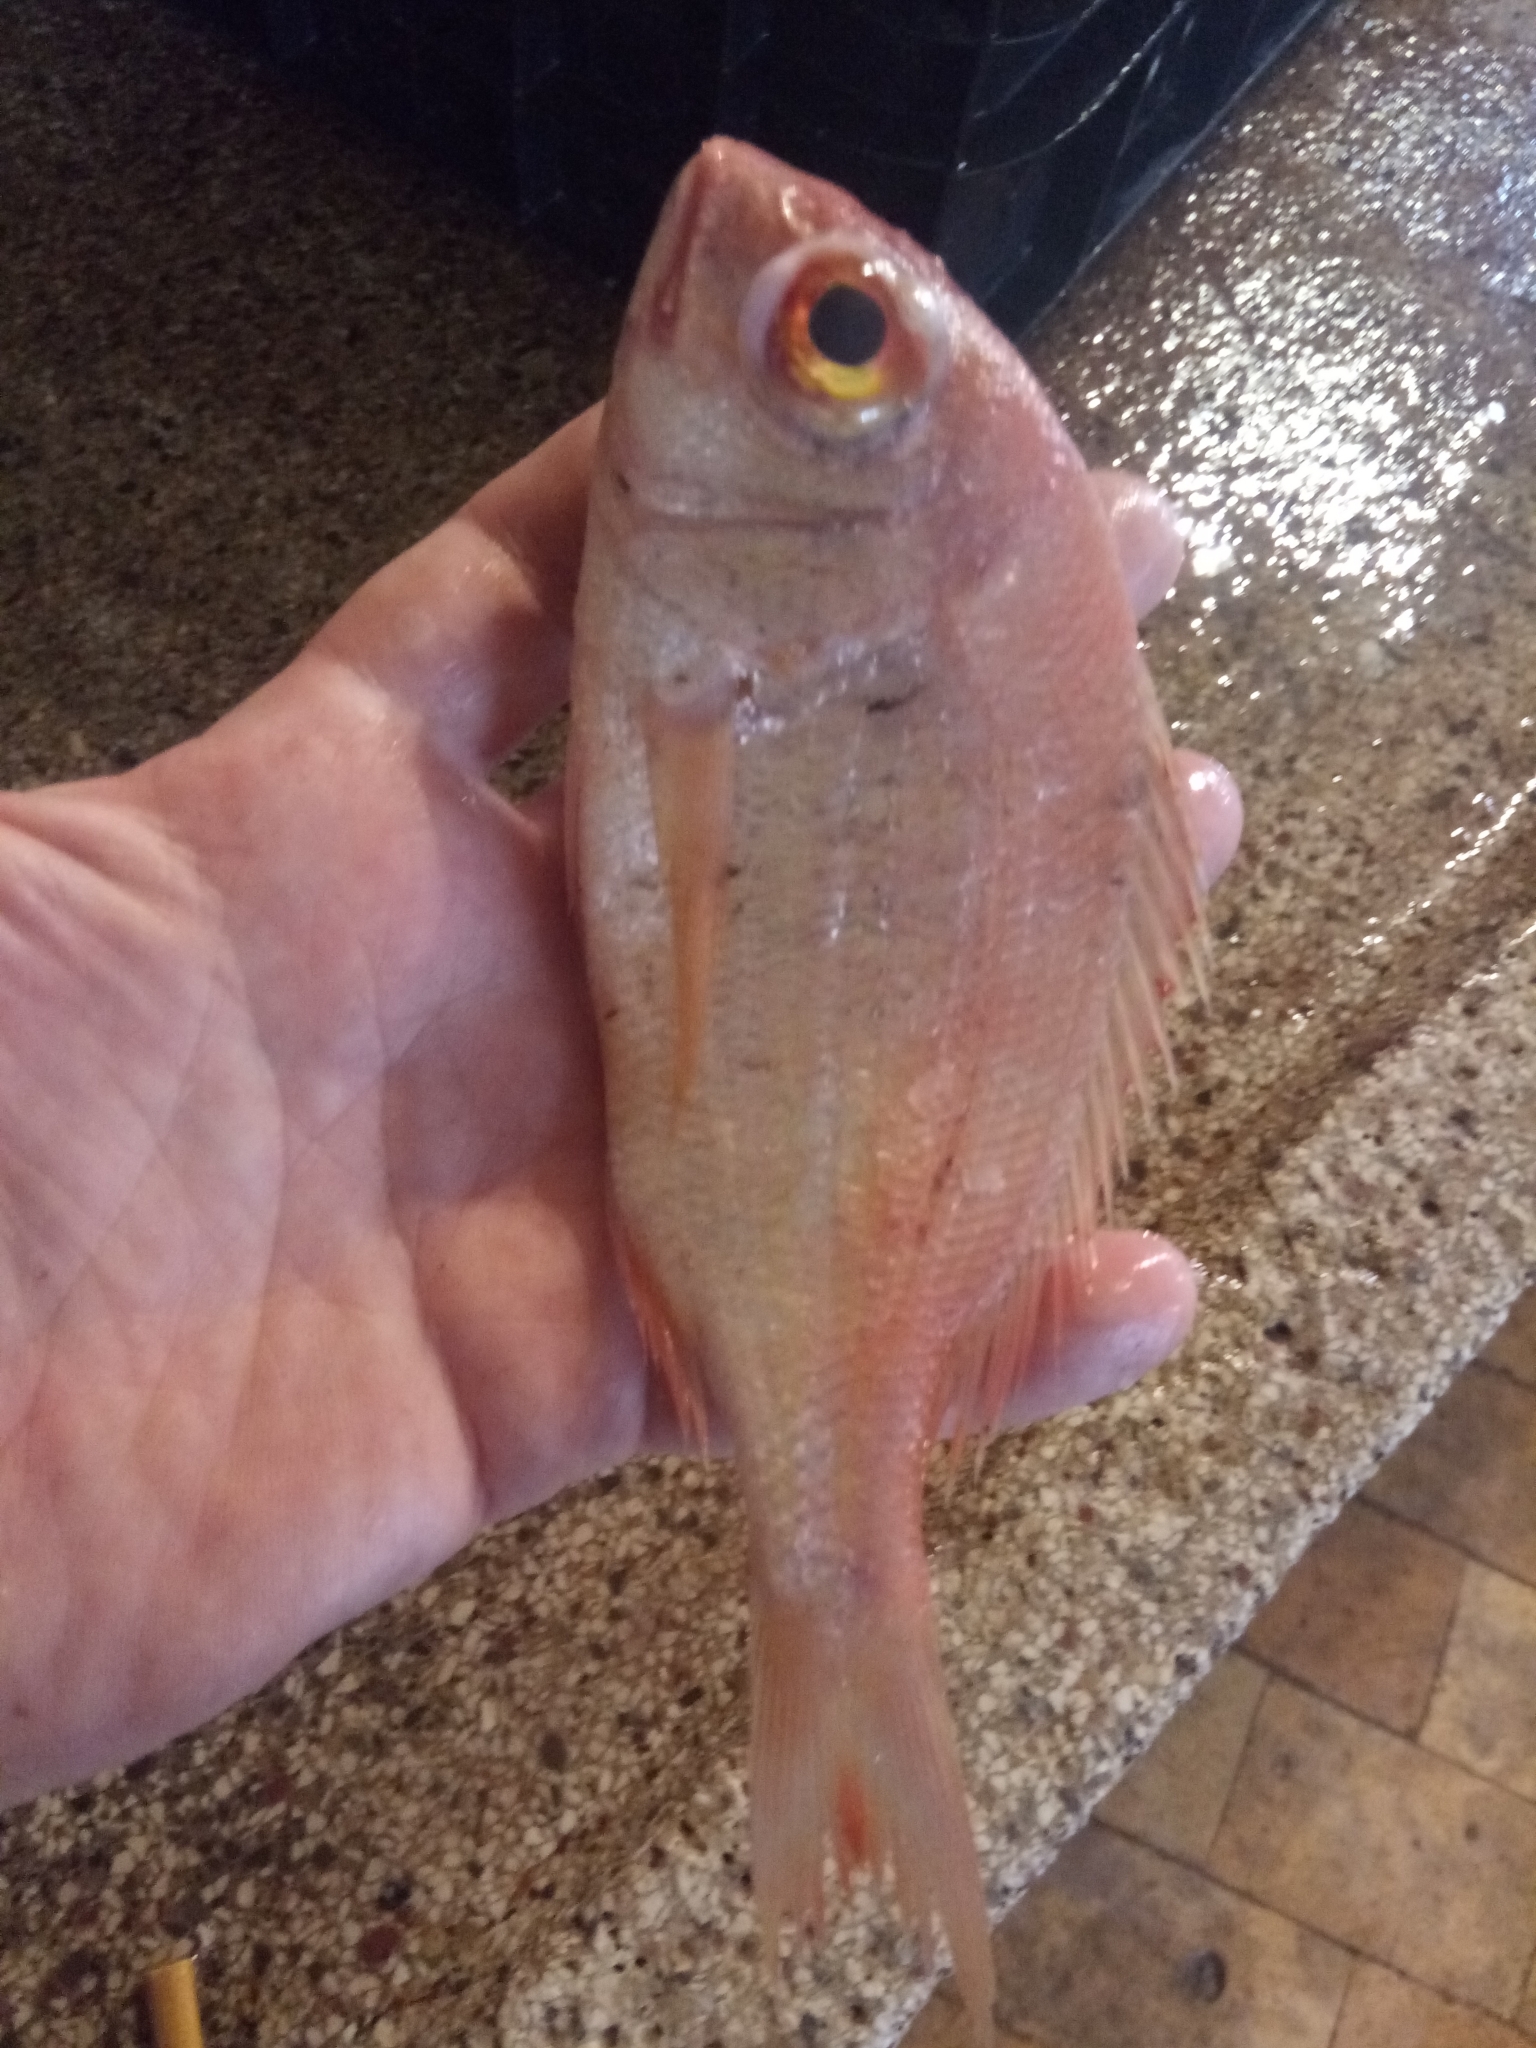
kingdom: Animalia
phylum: Chordata
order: Perciformes
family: Sparidae
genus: Dentex
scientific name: Dentex maroccanus
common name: Morocco dentex
